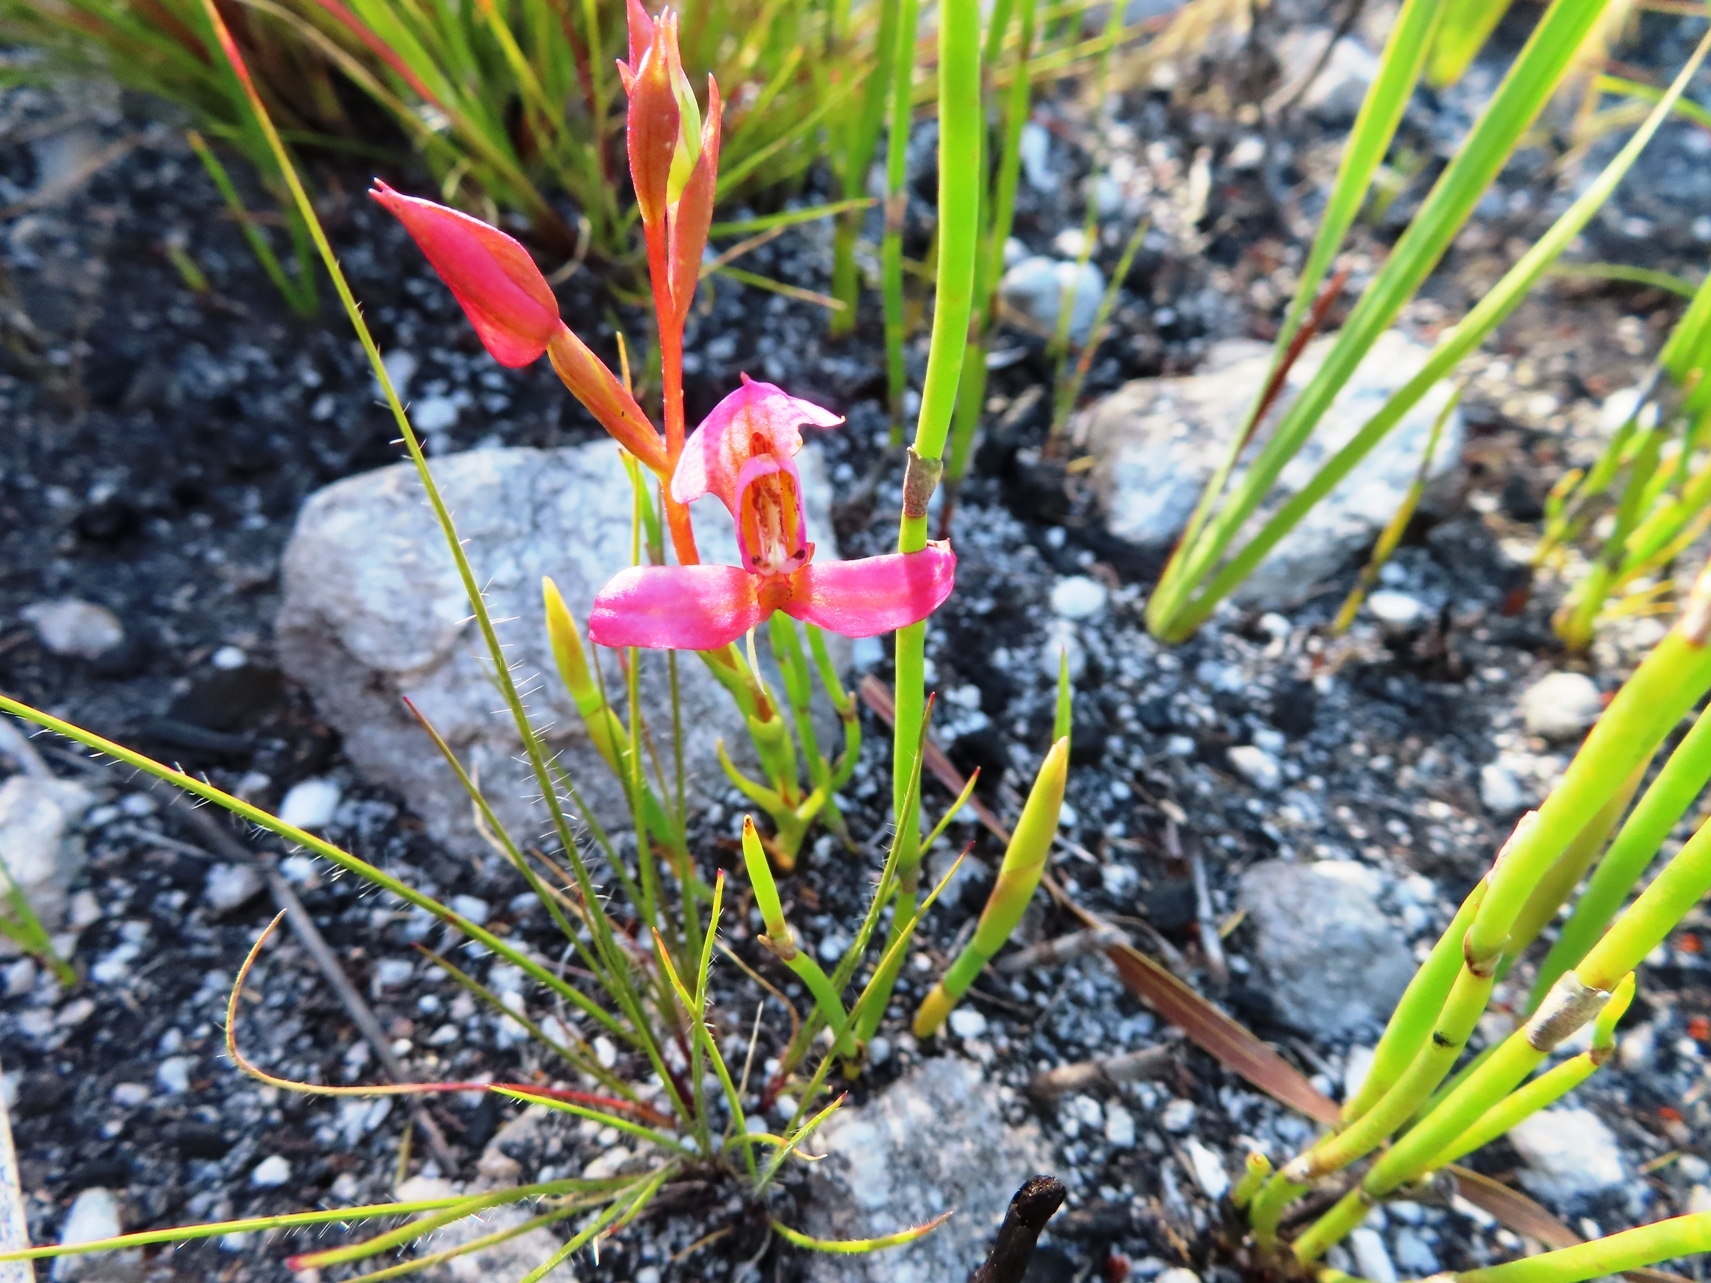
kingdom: Plantae
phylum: Tracheophyta
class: Liliopsida
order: Asparagales
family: Orchidaceae
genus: Disa
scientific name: Disa filicornis
